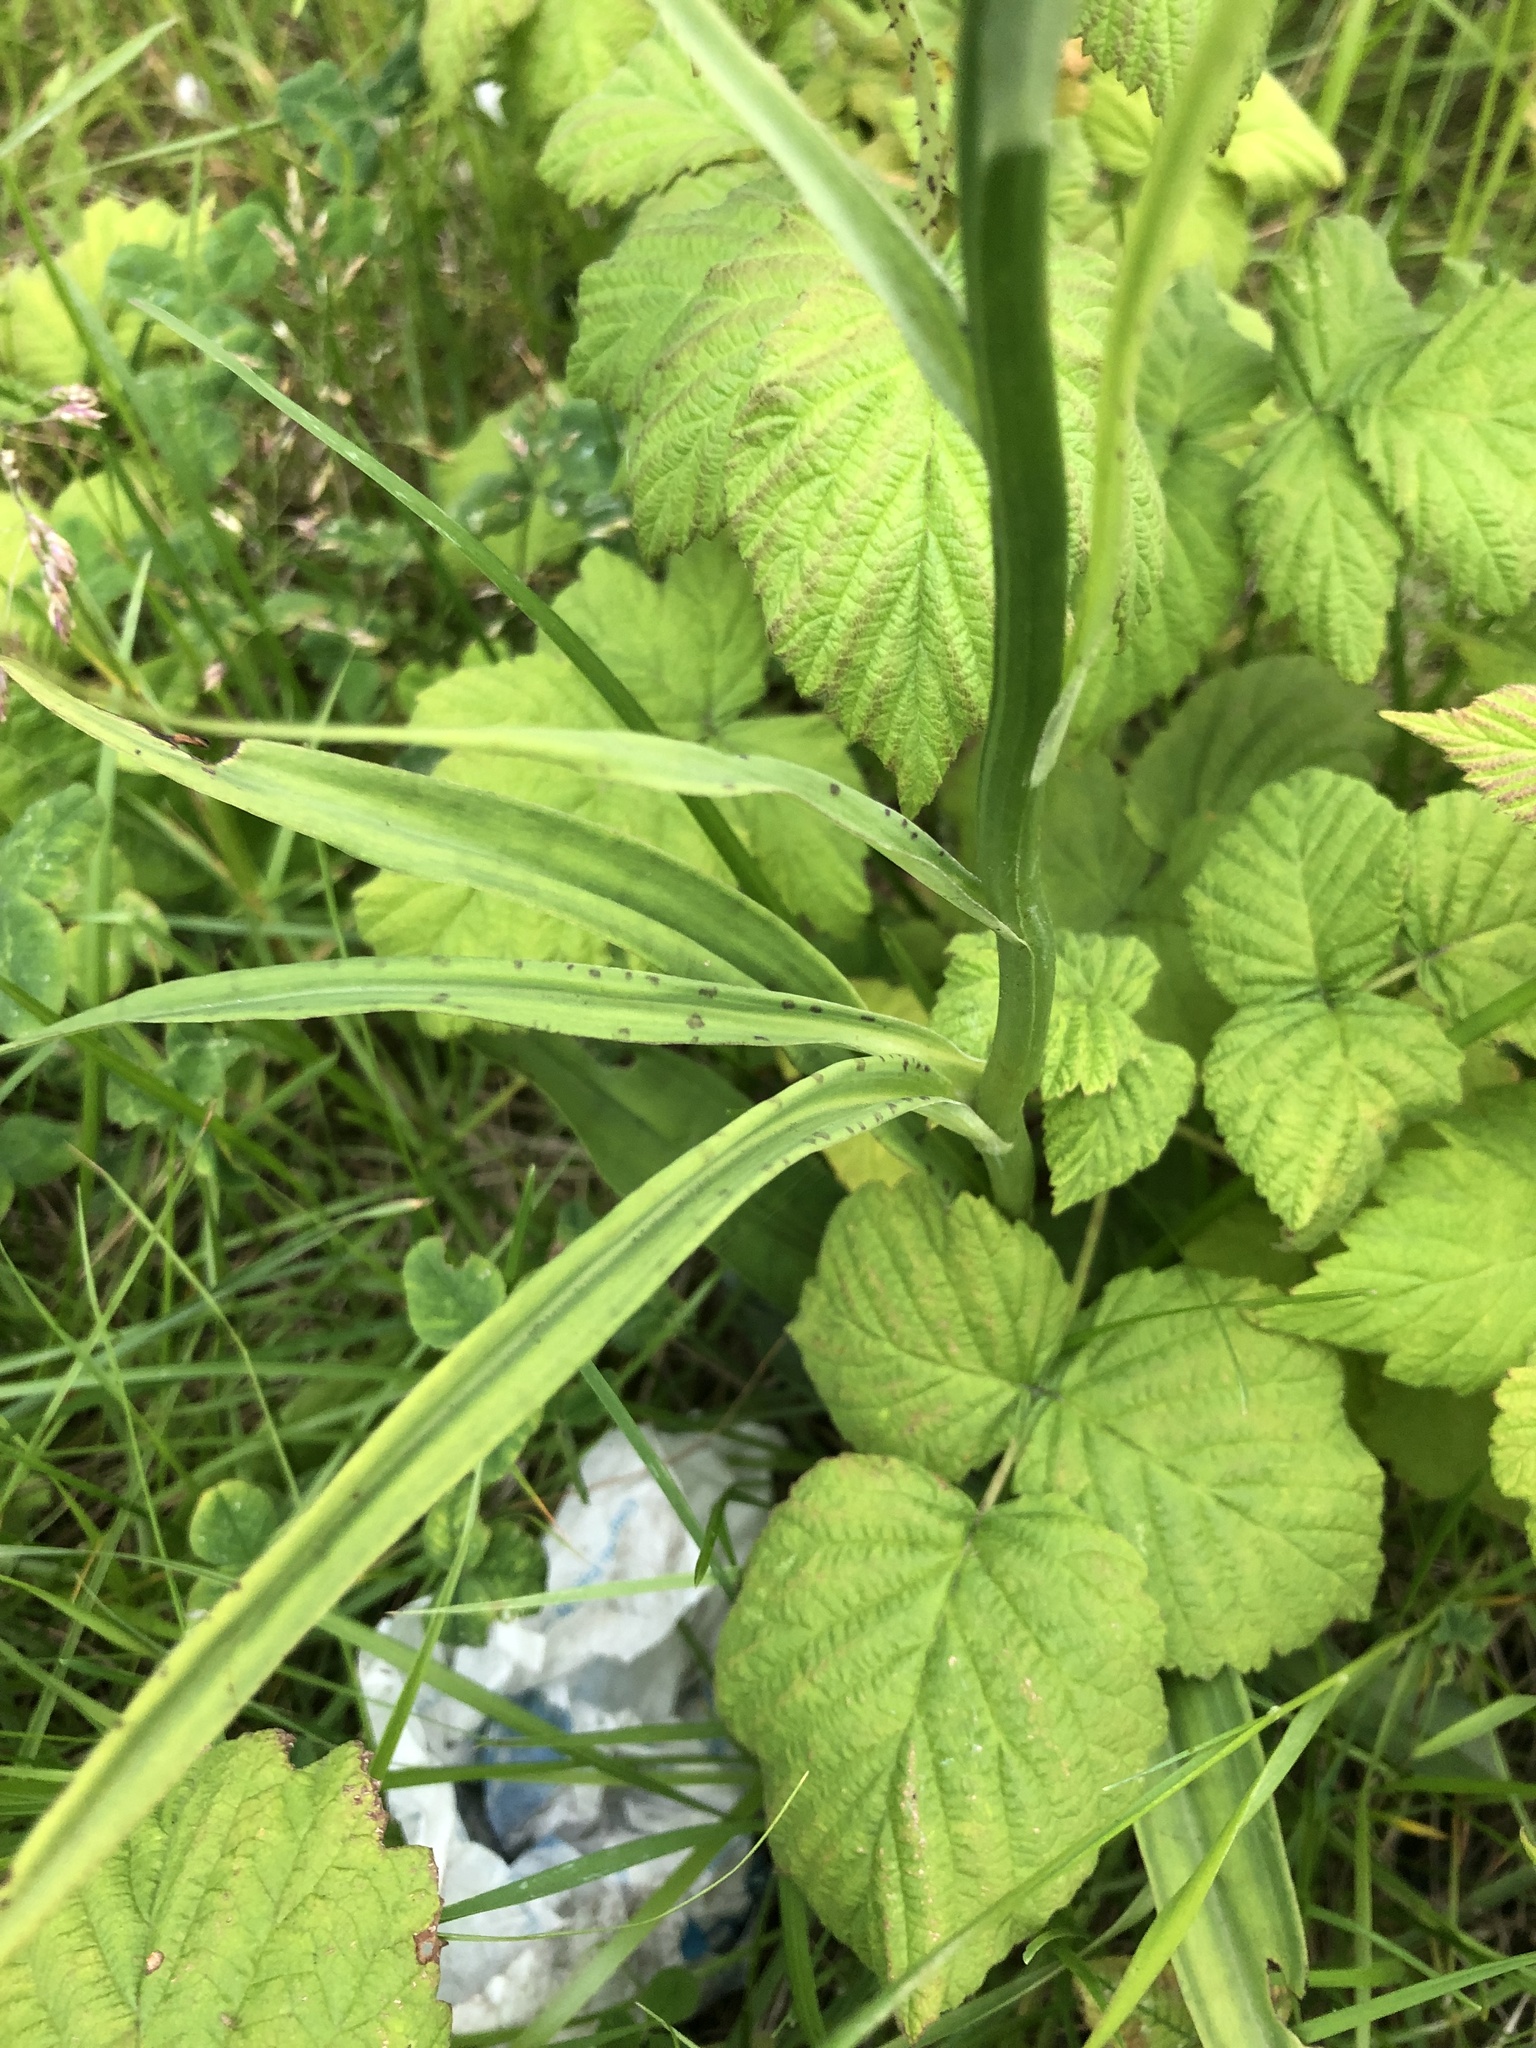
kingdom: Plantae
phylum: Tracheophyta
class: Liliopsida
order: Asparagales
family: Orchidaceae
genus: Dactylorhiza
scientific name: Dactylorhiza maculata
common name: Heath spotted-orchid
